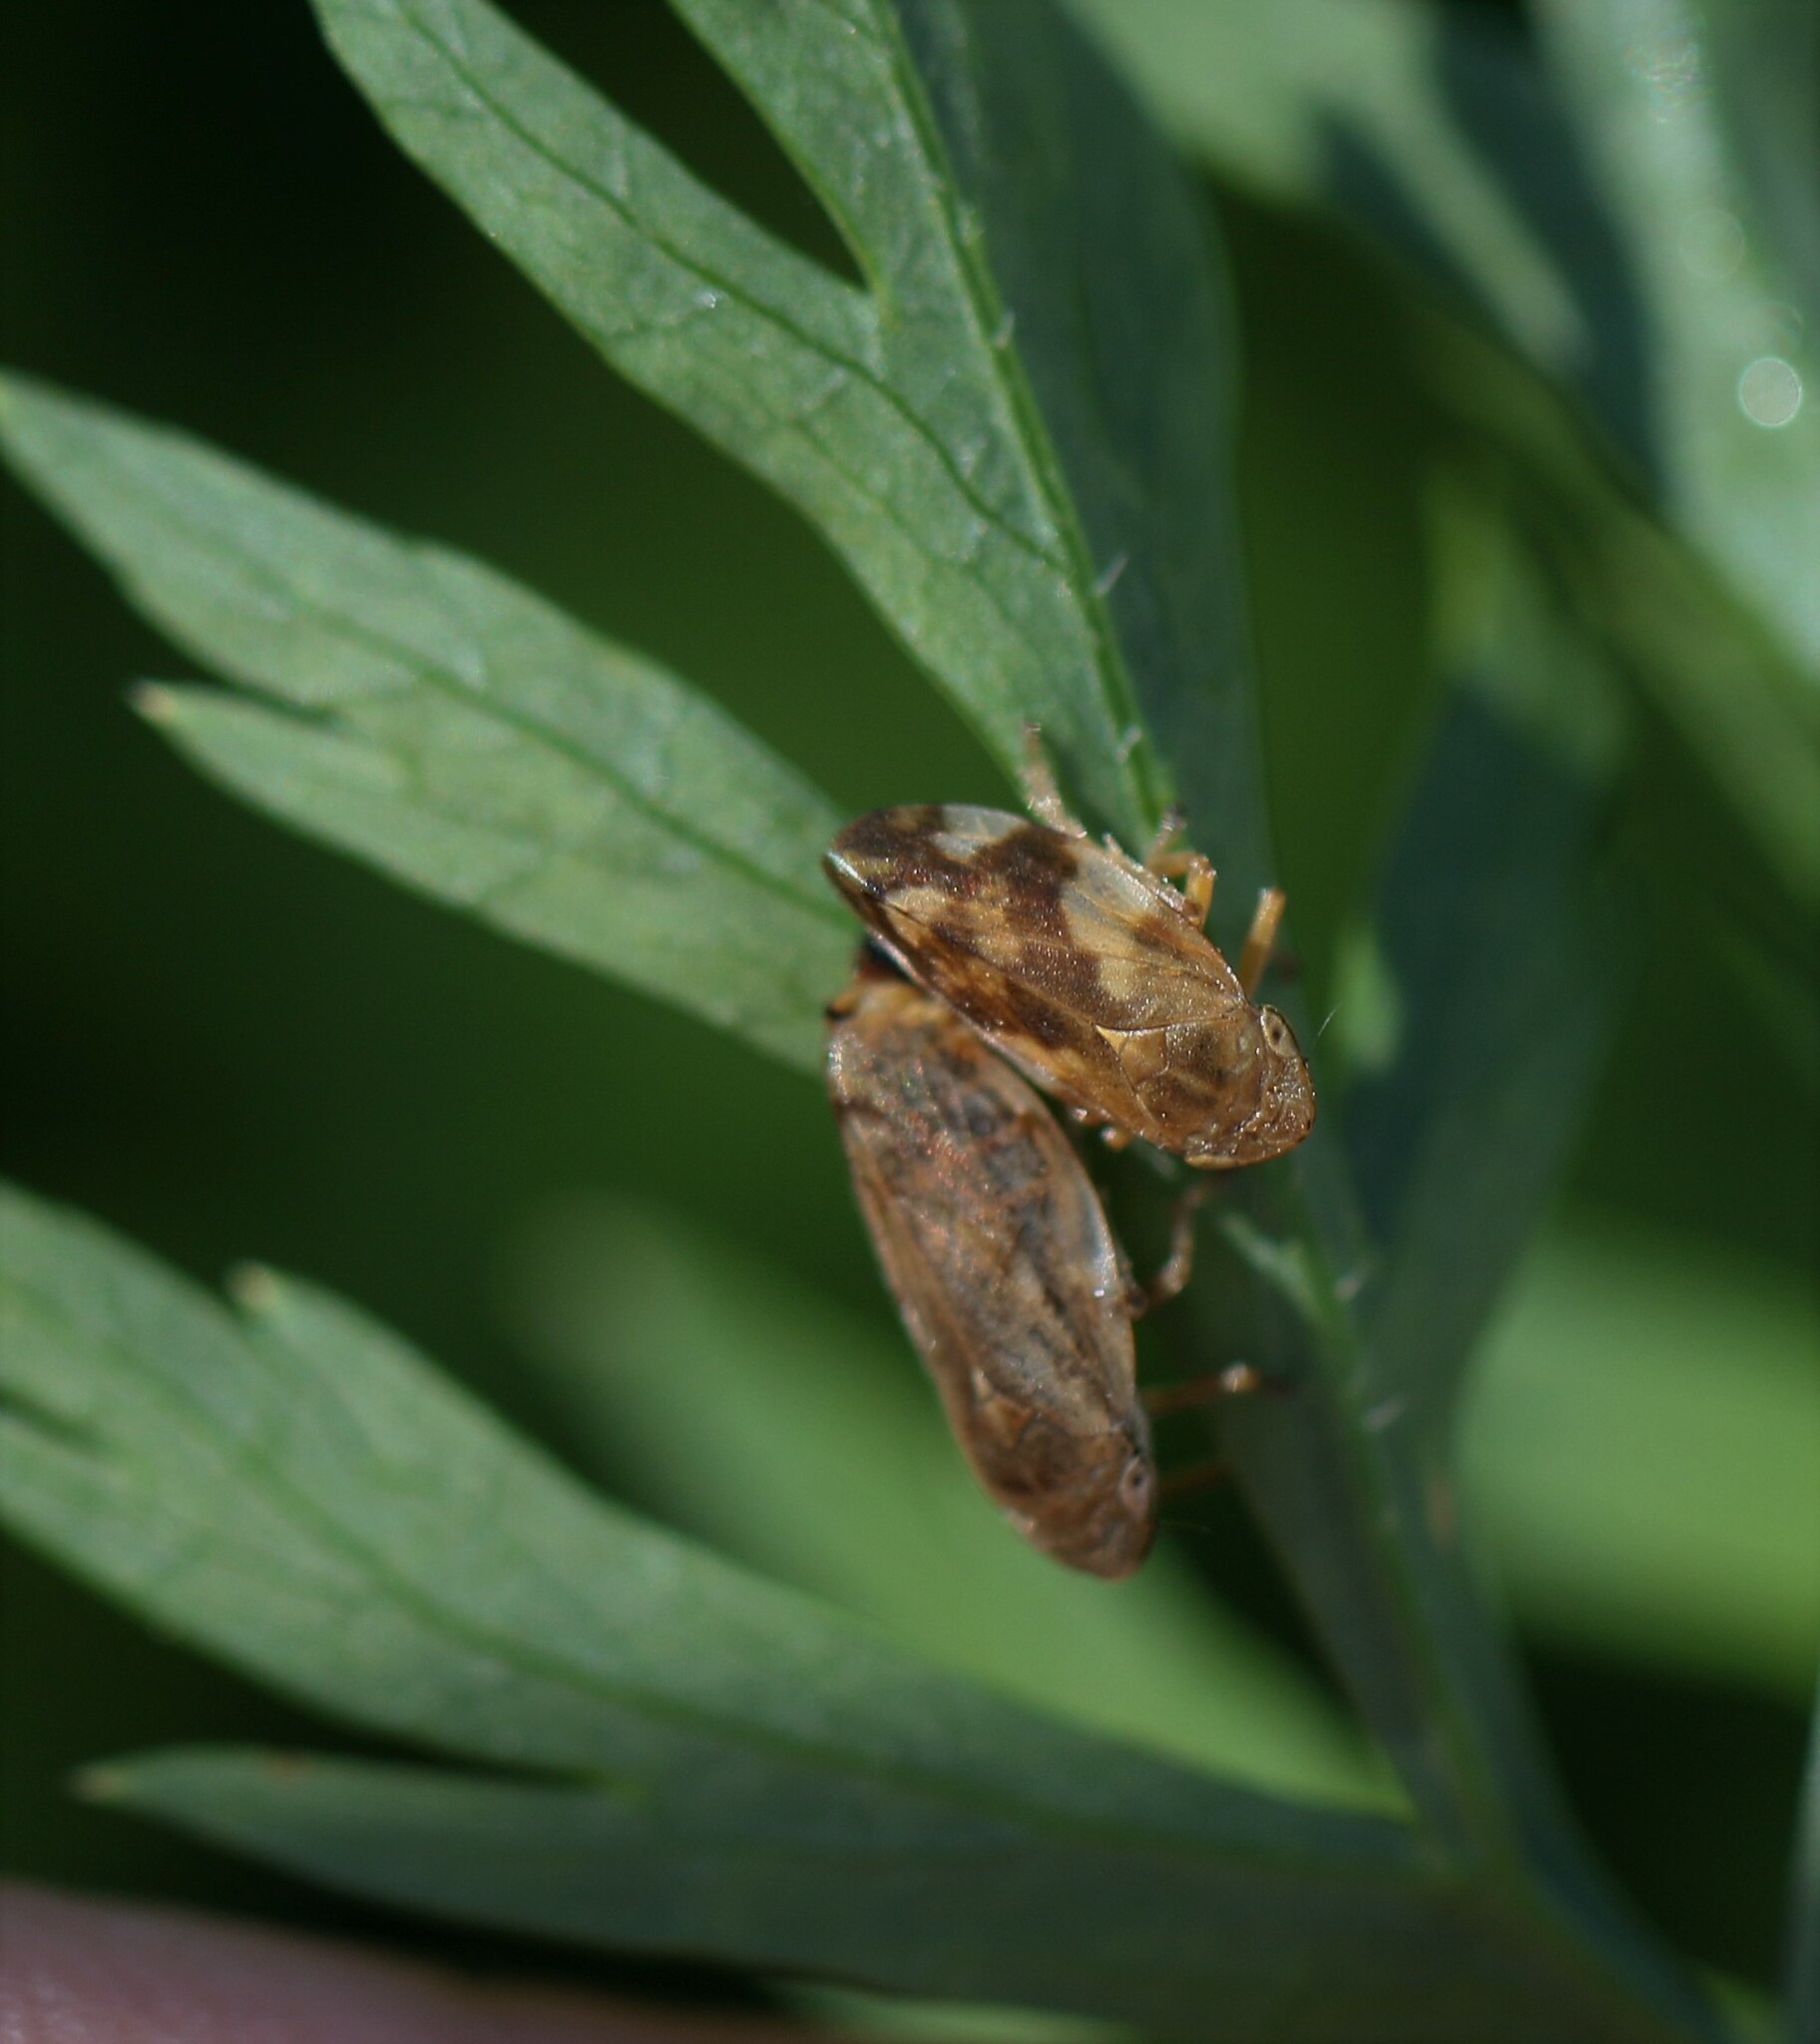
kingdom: Animalia
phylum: Arthropoda
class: Insecta
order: Hemiptera
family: Aphrophoridae
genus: Philaenus
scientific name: Philaenus spumarius
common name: Meadow spittlebug
